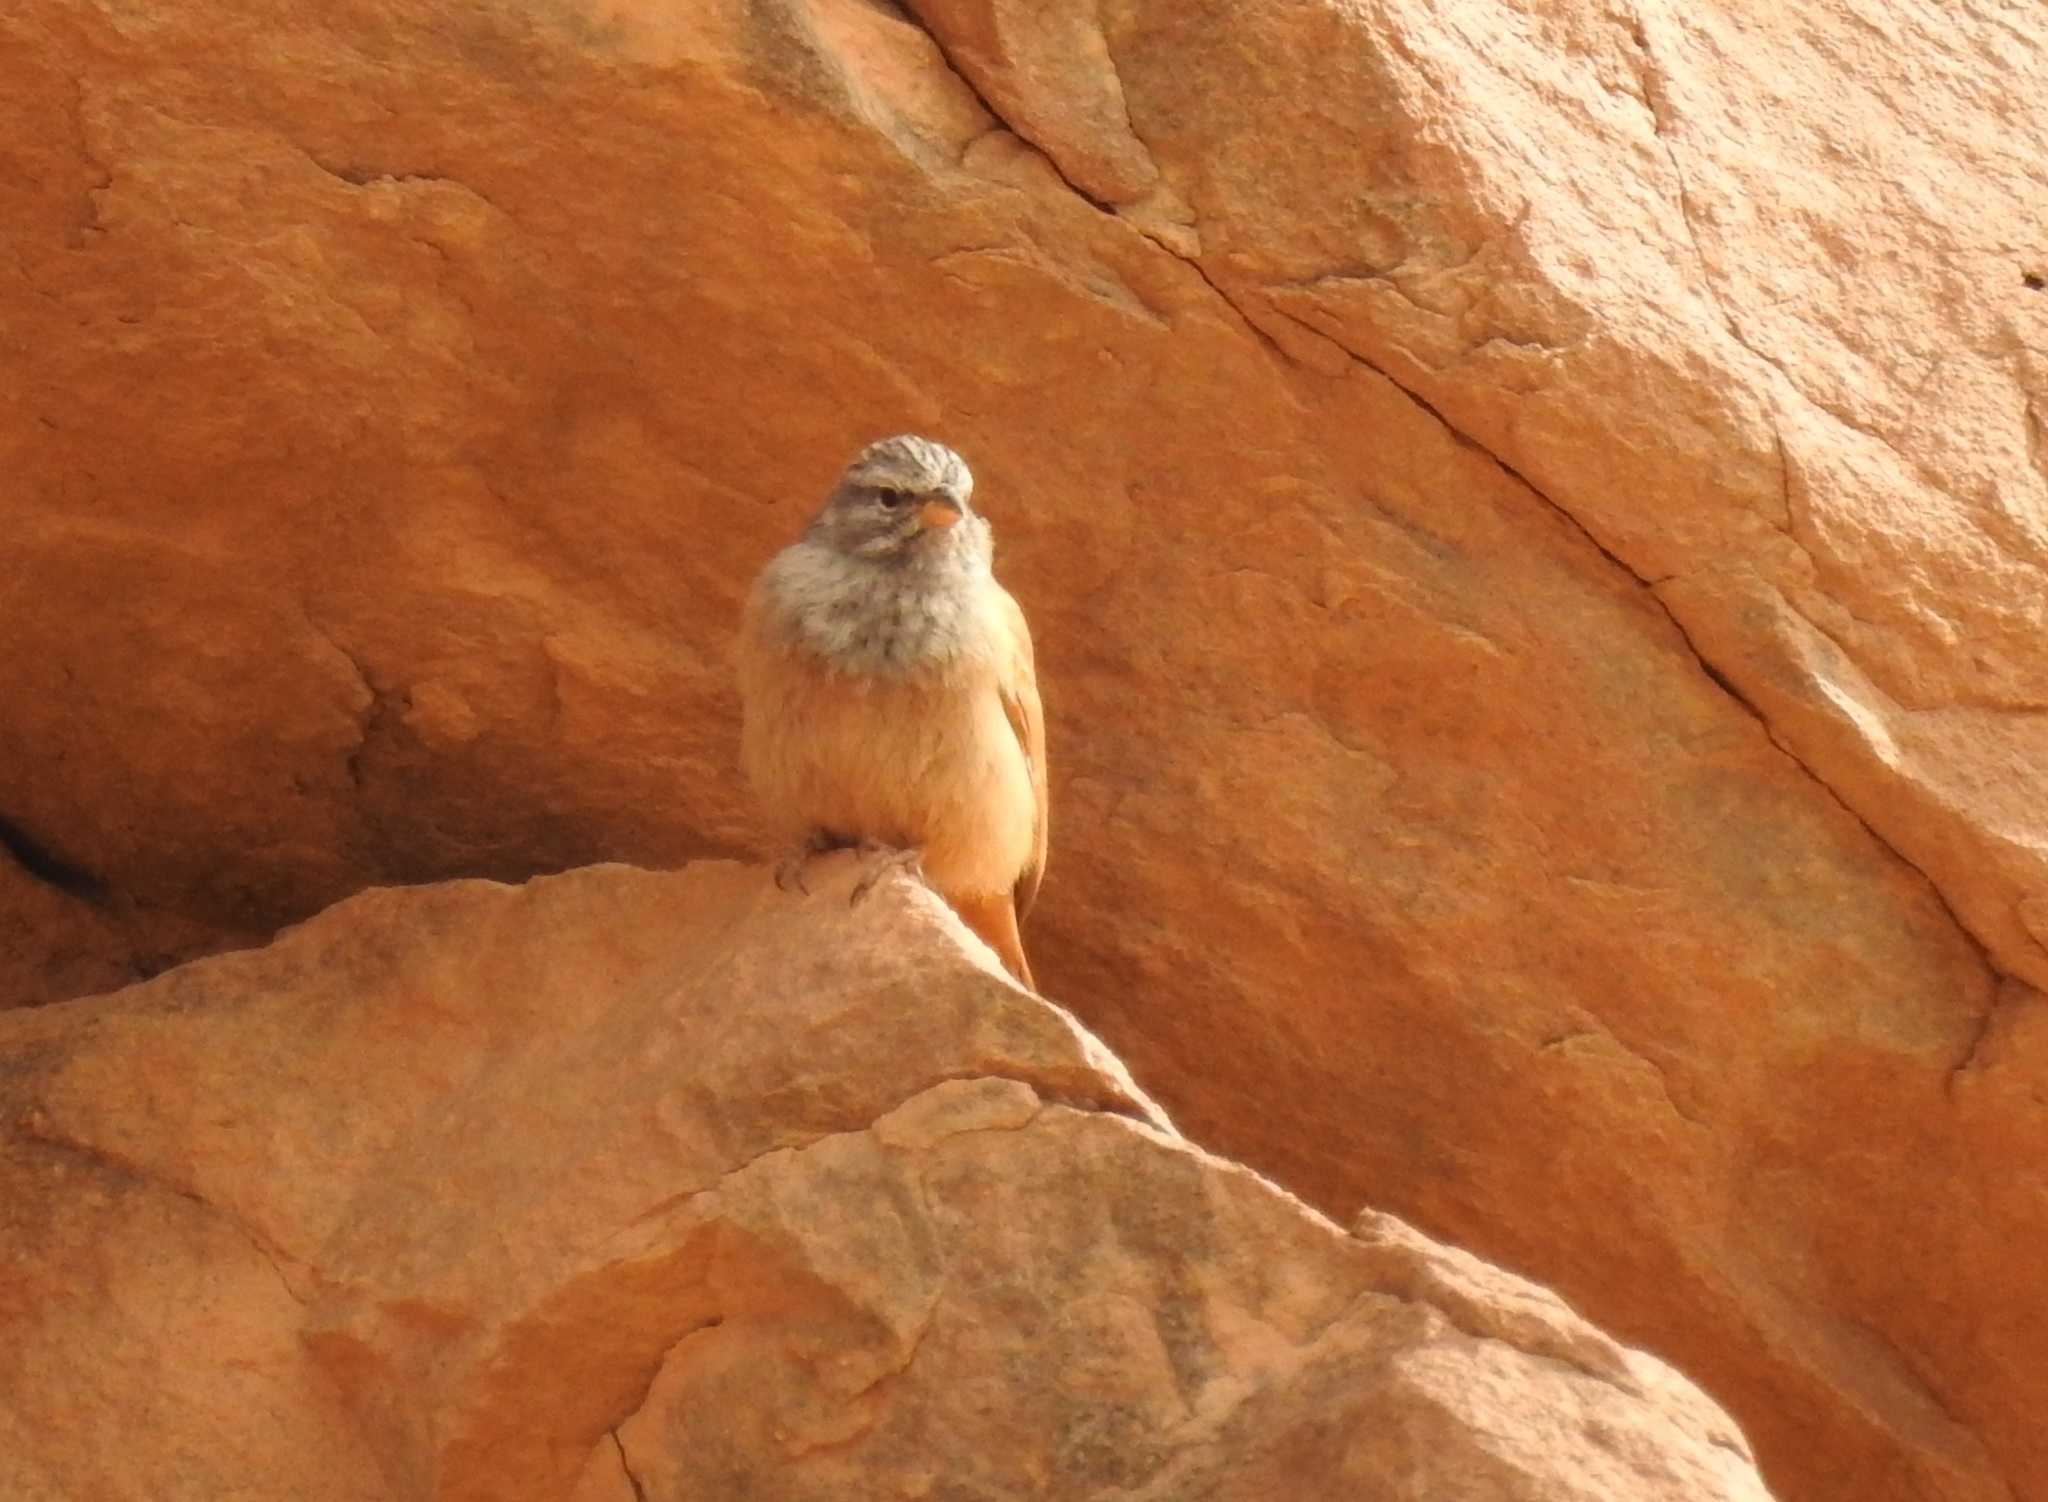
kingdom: Animalia
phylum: Chordata
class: Aves
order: Passeriformes
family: Emberizidae
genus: Emberiza
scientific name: Emberiza sahari
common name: House bunting
